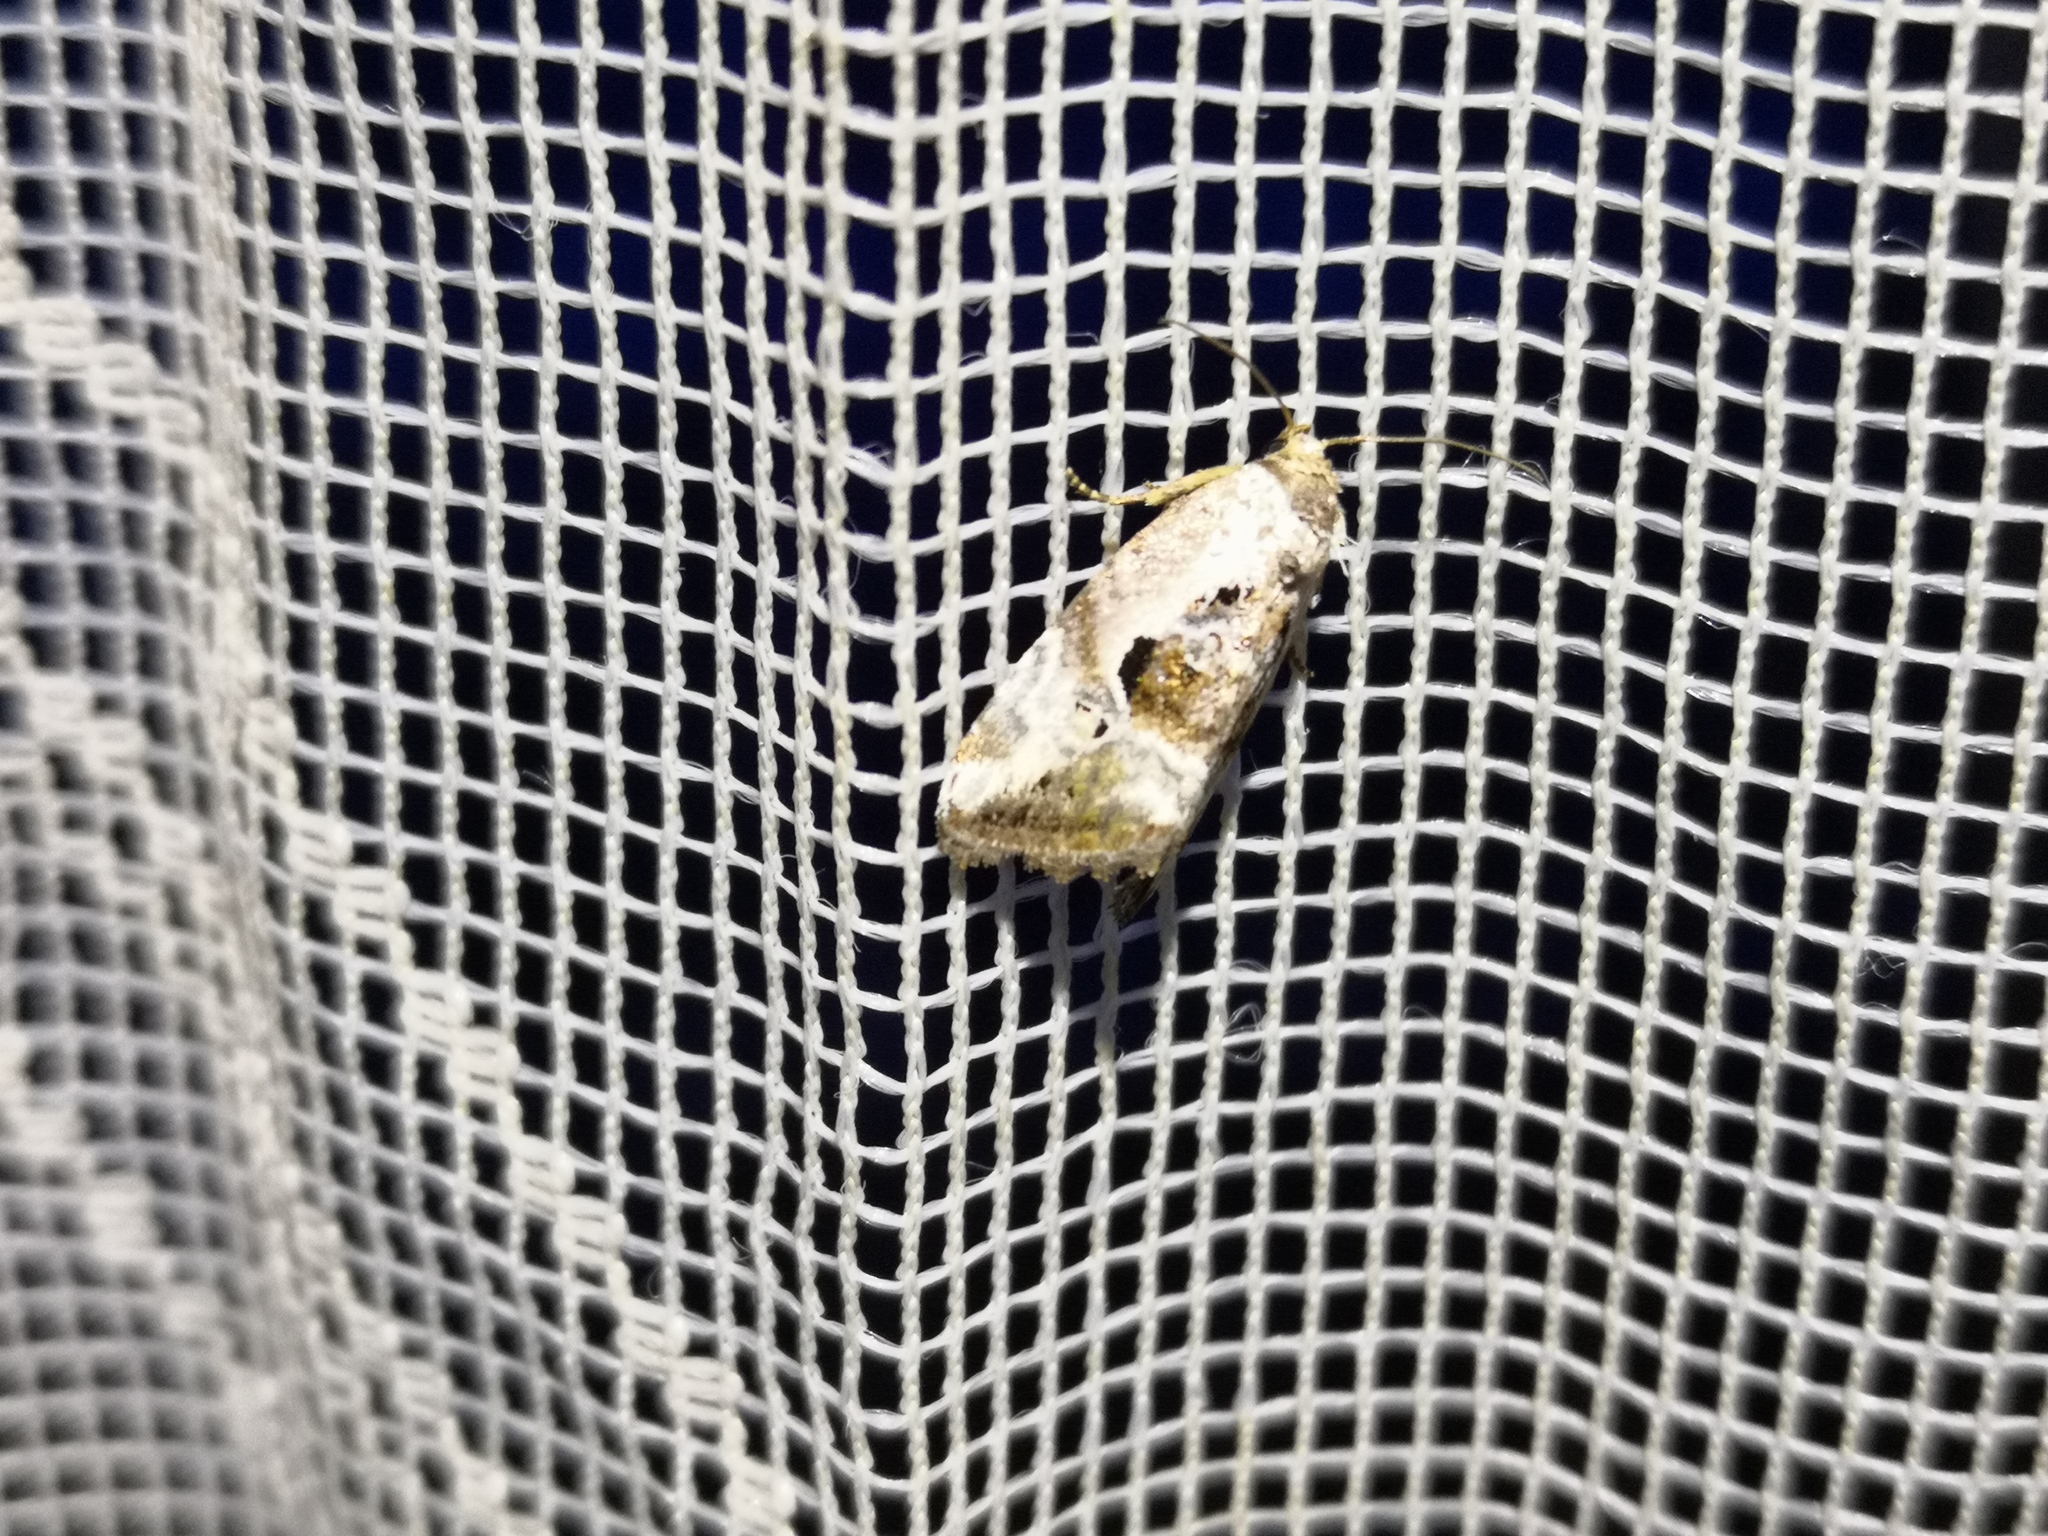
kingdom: Animalia
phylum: Arthropoda
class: Insecta
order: Lepidoptera
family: Noctuidae
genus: Elaphria
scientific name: Elaphria venustula
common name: Rosy marbled
